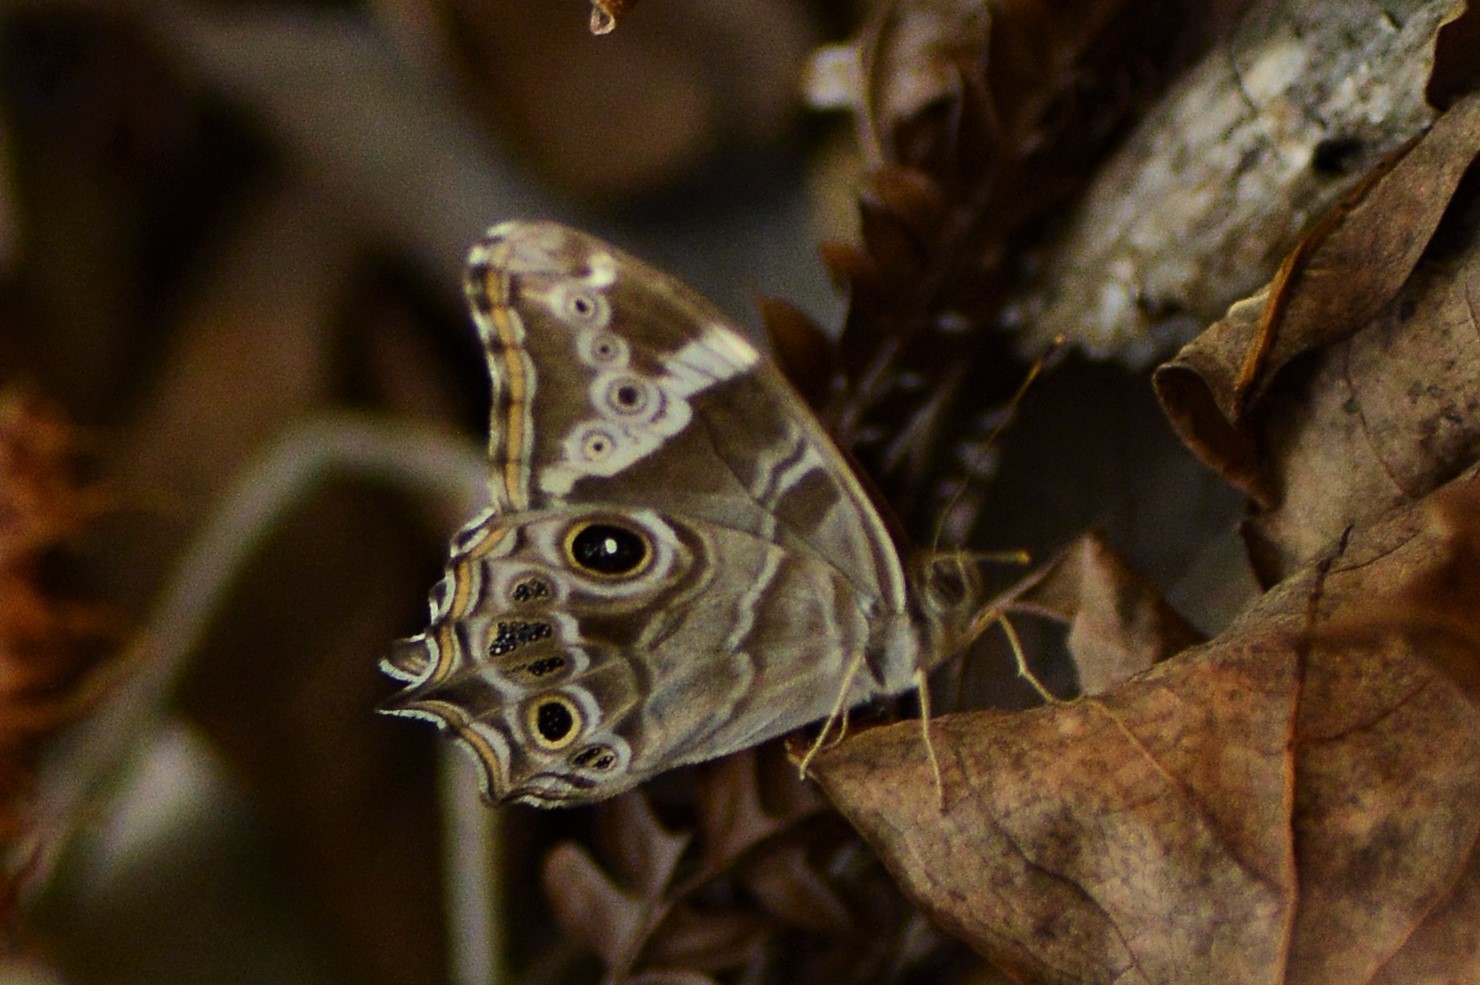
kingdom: Animalia
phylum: Arthropoda
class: Insecta
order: Lepidoptera
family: Nymphalidae
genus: Lethe
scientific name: Lethe rohria
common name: Common treebrown
